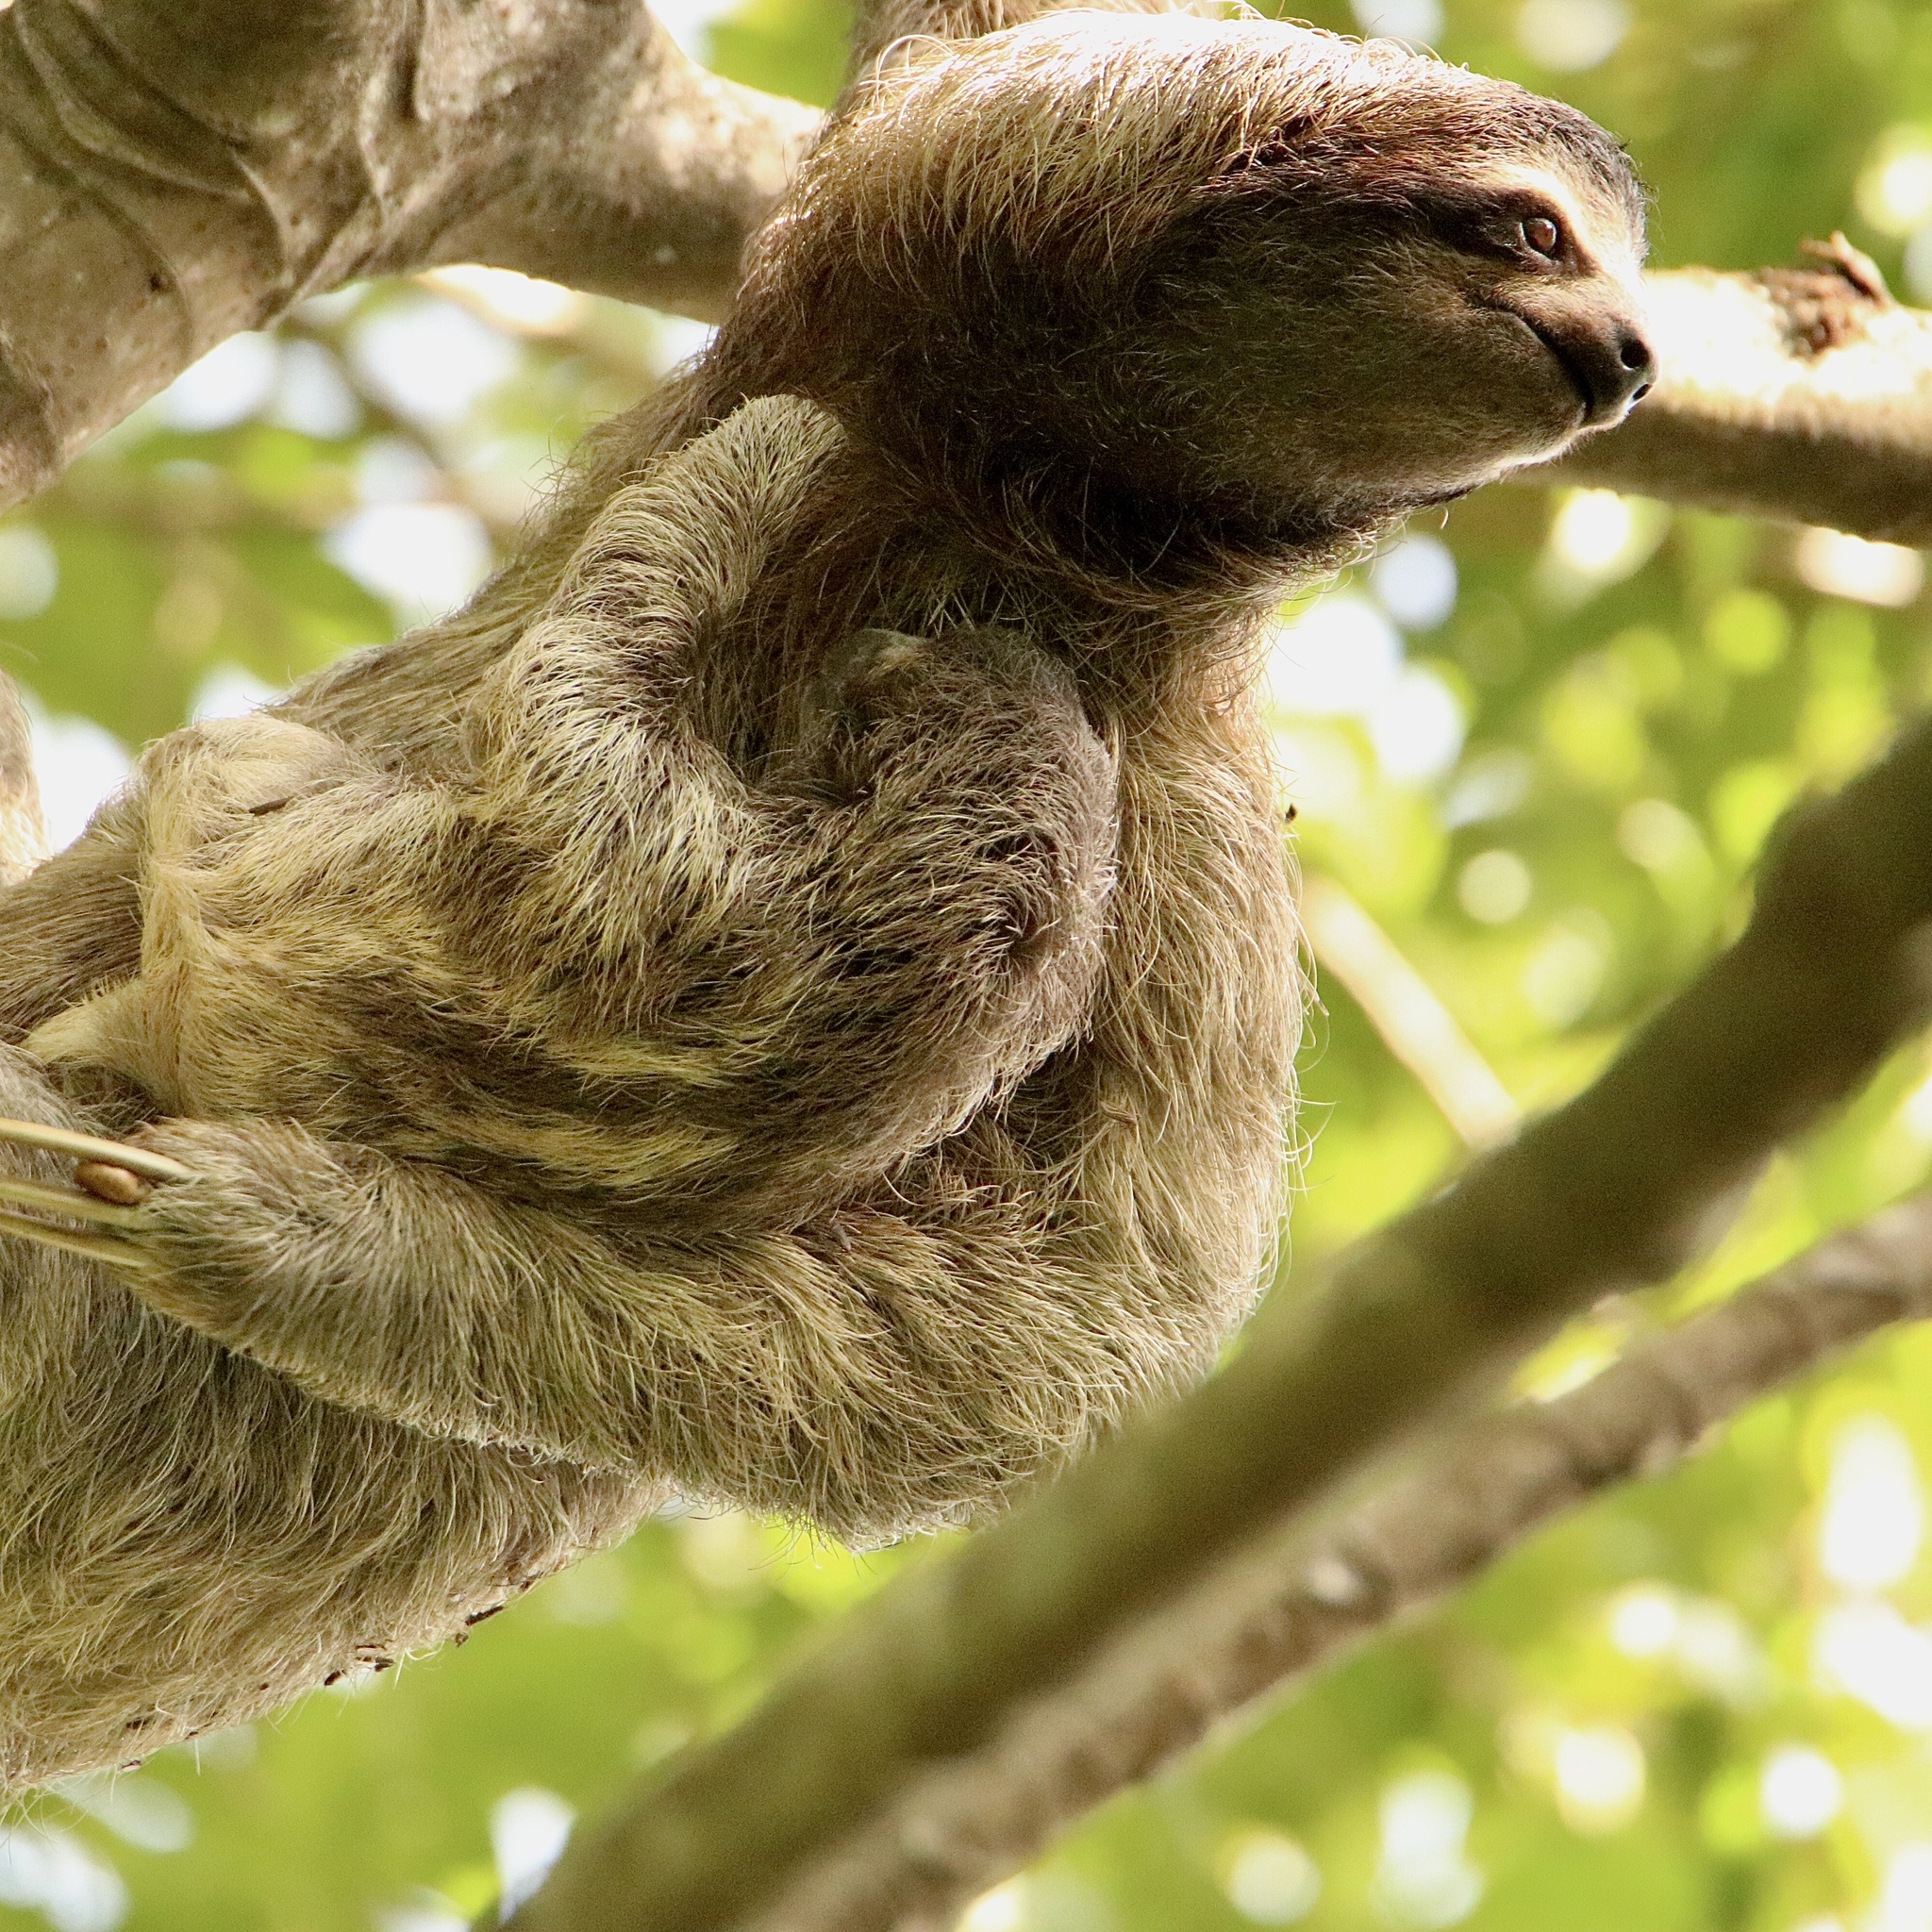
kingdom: Animalia
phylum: Chordata
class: Mammalia
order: Pilosa
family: Bradypodidae
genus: Bradypus
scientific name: Bradypus variegatus
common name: Brown-throated three-toed sloth
